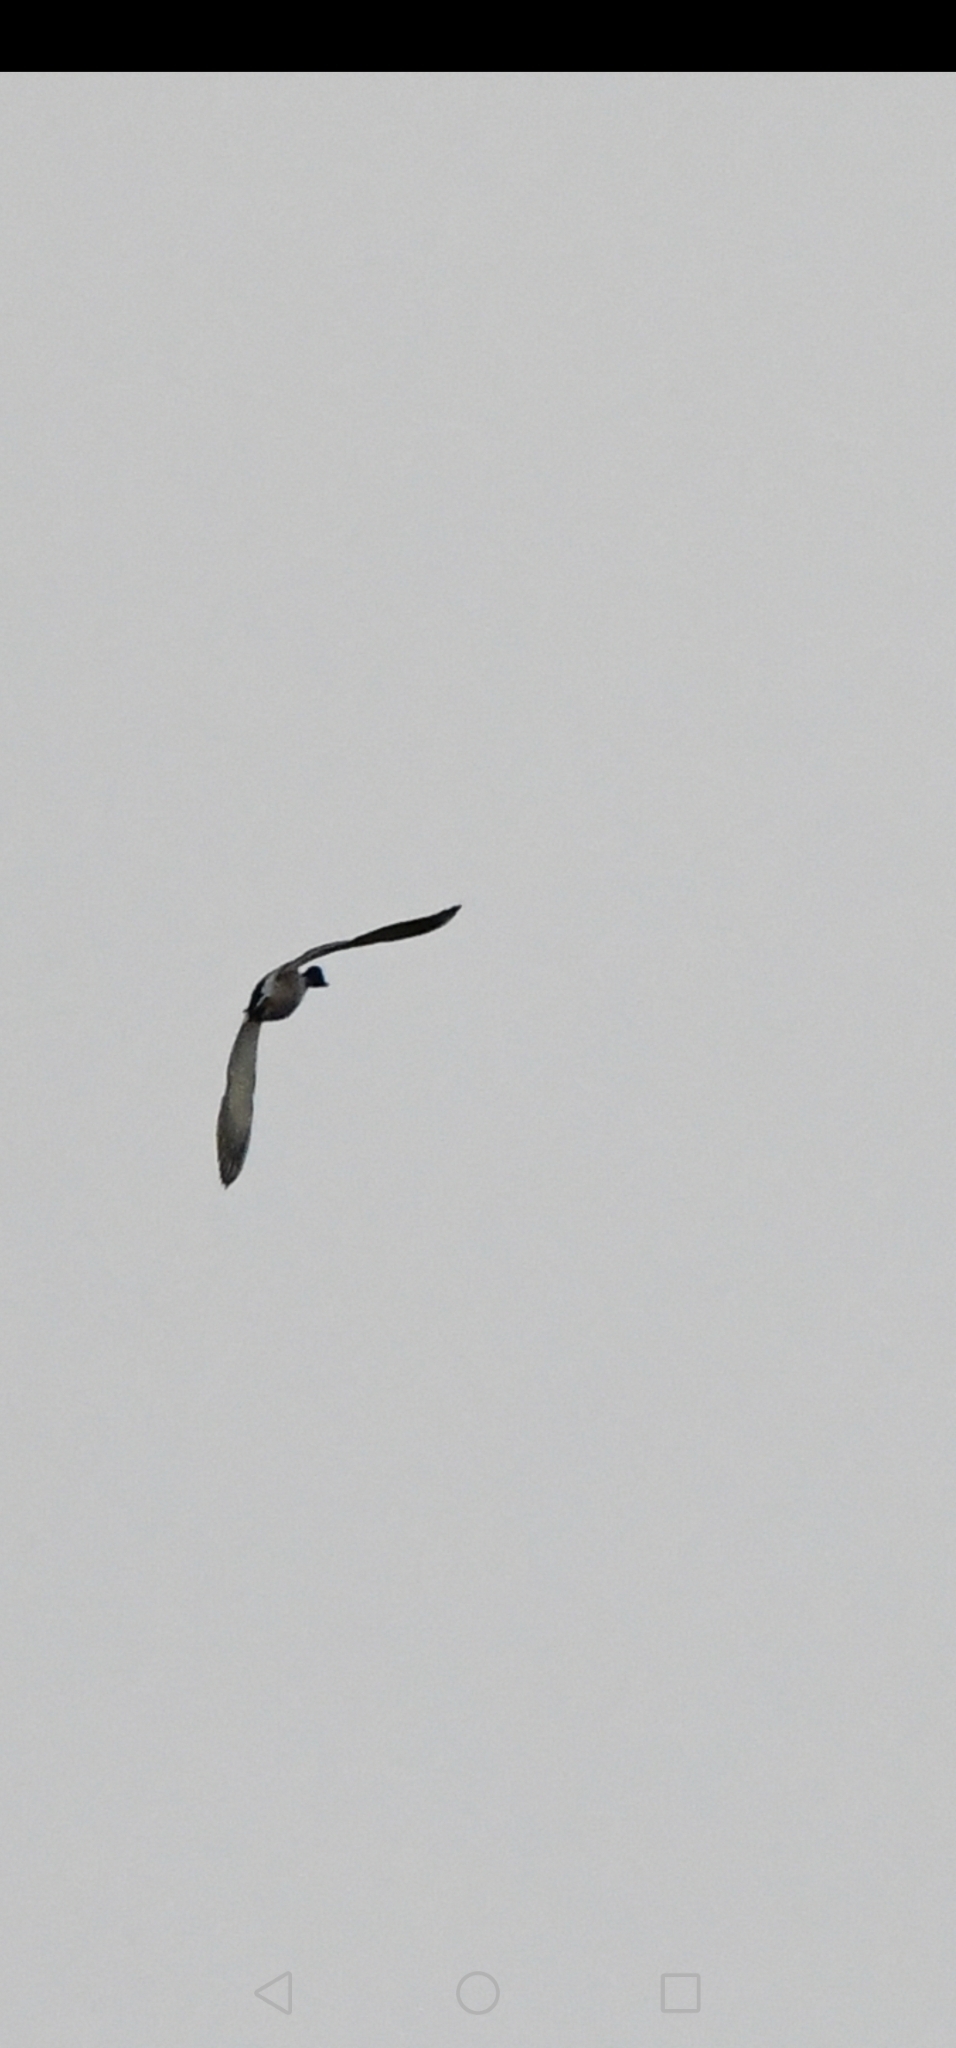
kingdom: Animalia
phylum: Chordata
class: Aves
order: Anseriformes
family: Anatidae
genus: Anas
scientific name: Anas platyrhynchos
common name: Mallard
